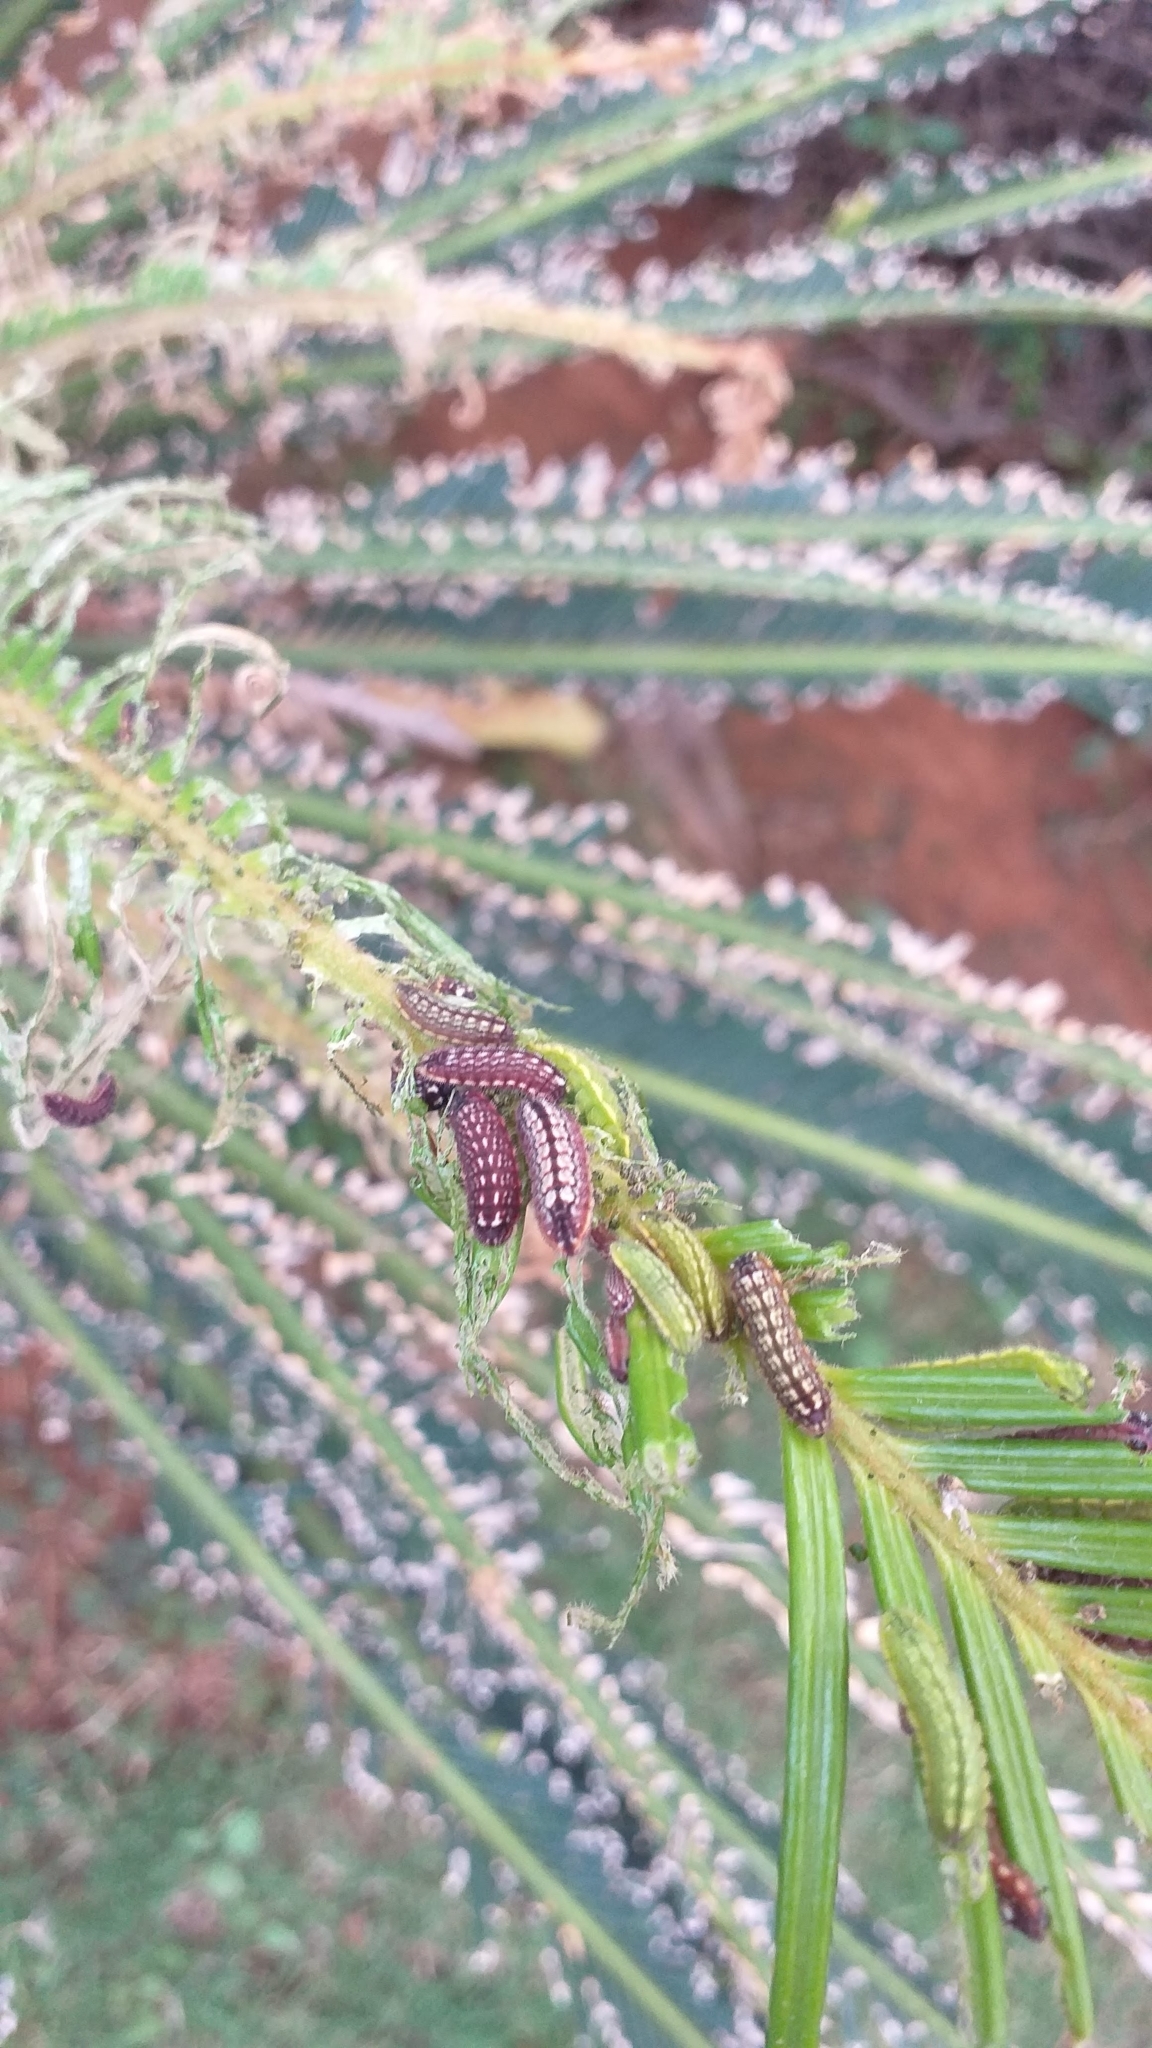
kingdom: Animalia
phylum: Arthropoda
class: Insecta
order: Lepidoptera
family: Lycaenidae
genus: Luthrodes
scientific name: Luthrodes pandava
